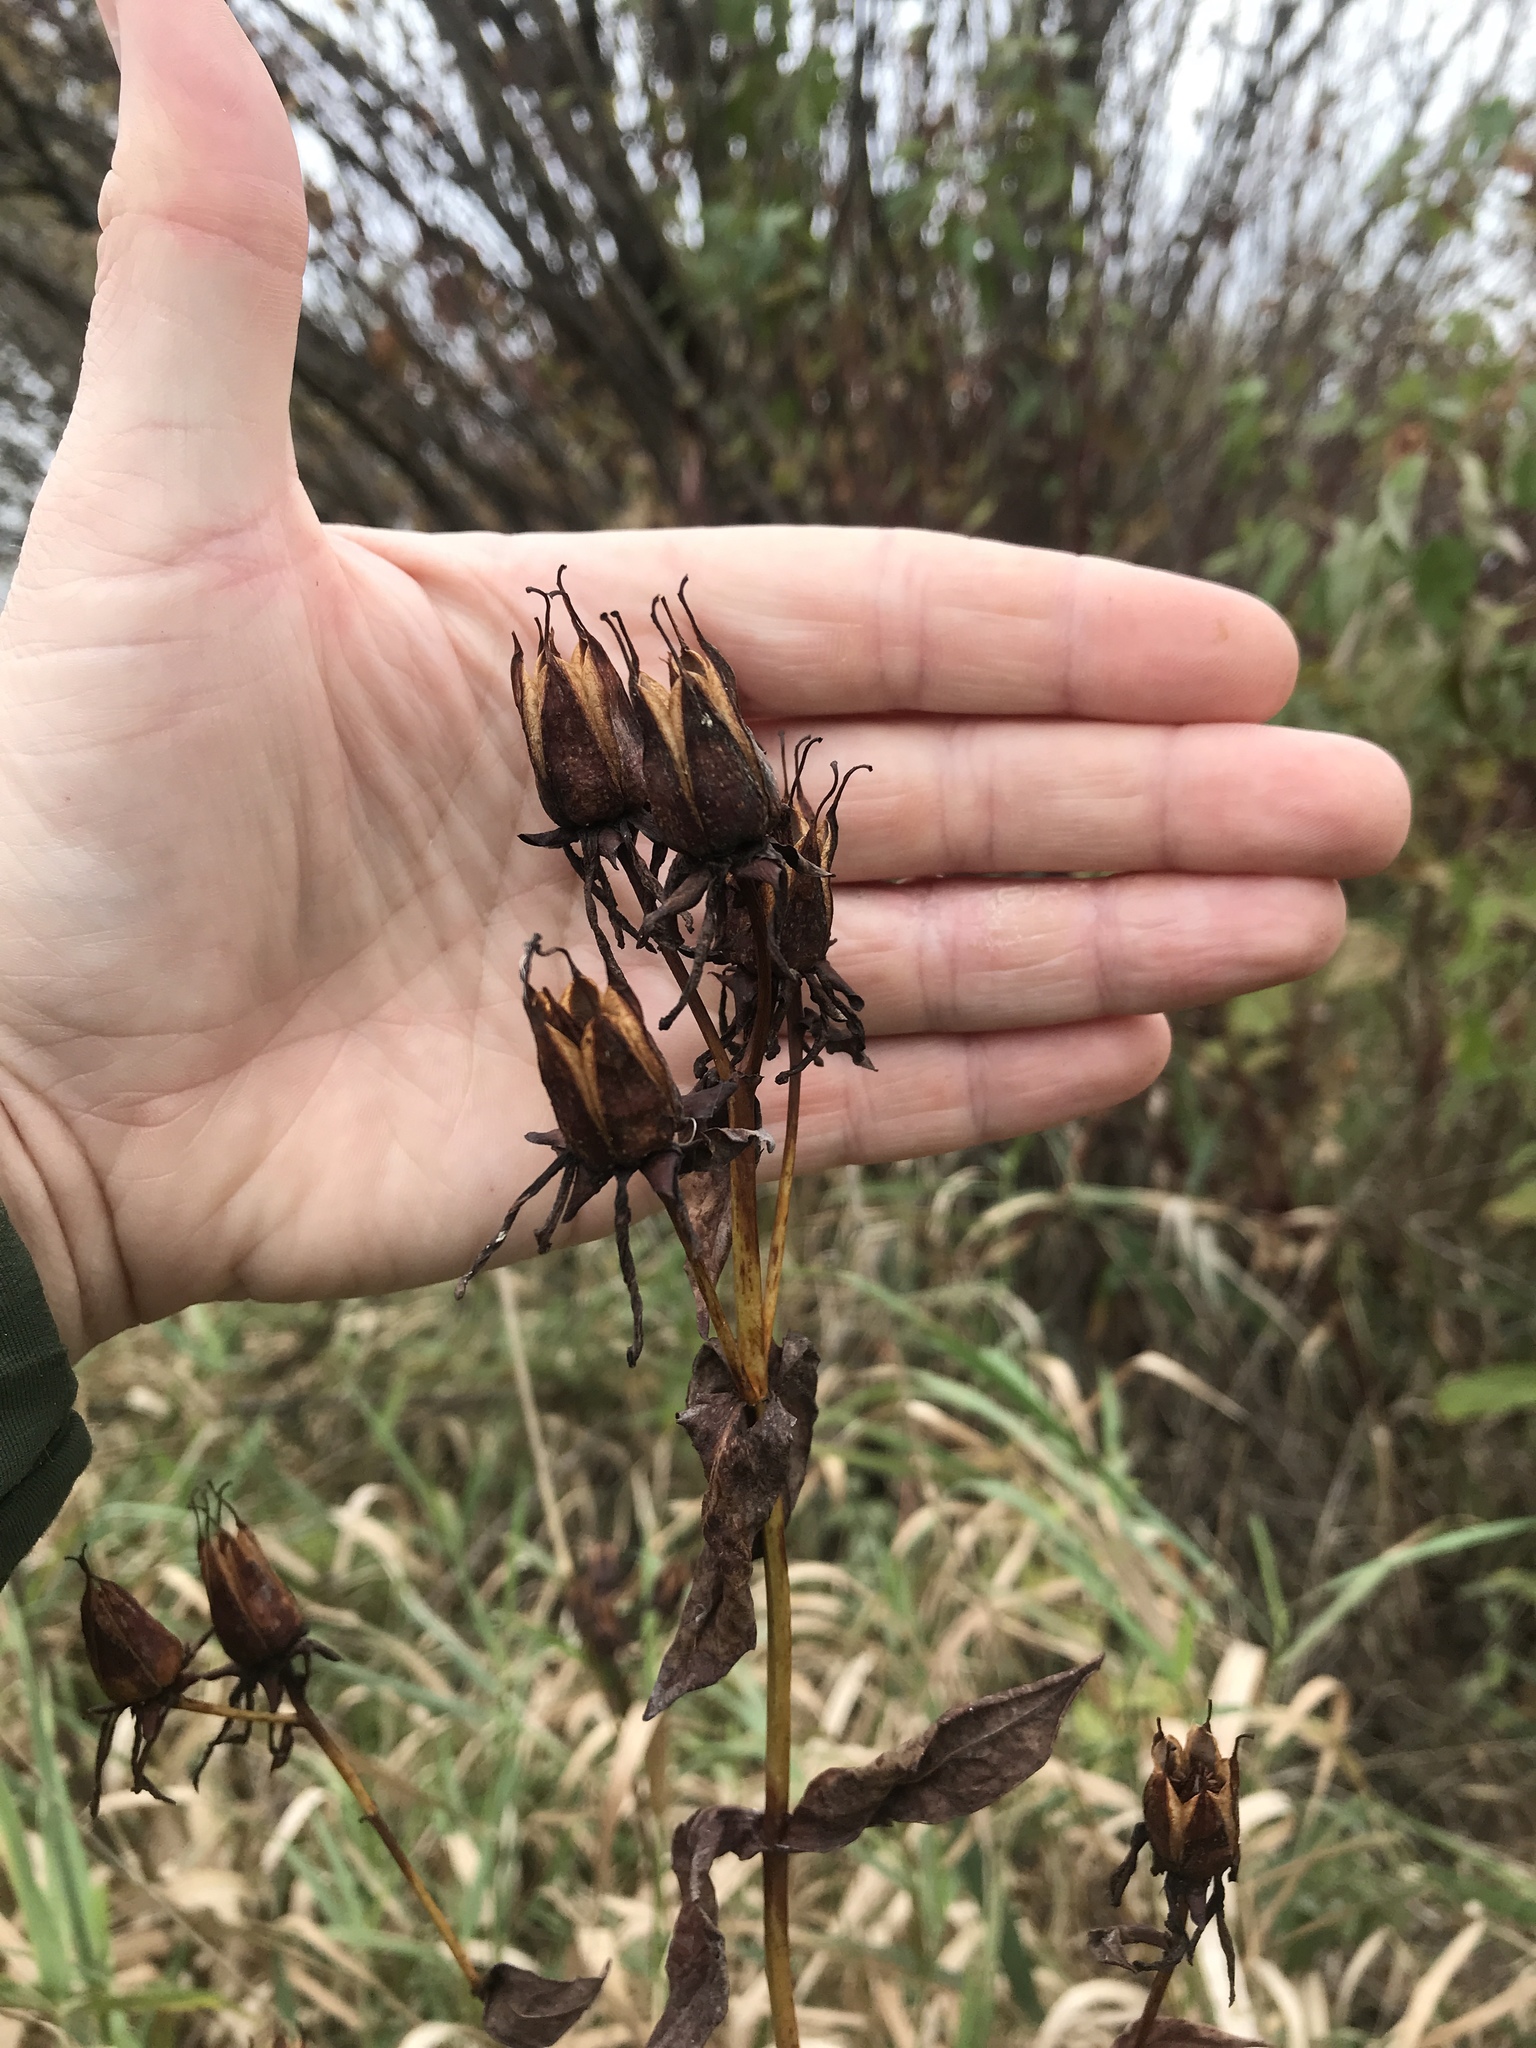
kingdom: Plantae
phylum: Tracheophyta
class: Magnoliopsida
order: Malpighiales
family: Hypericaceae
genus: Hypericum
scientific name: Hypericum ascyron
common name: Giant st. john's-wort
